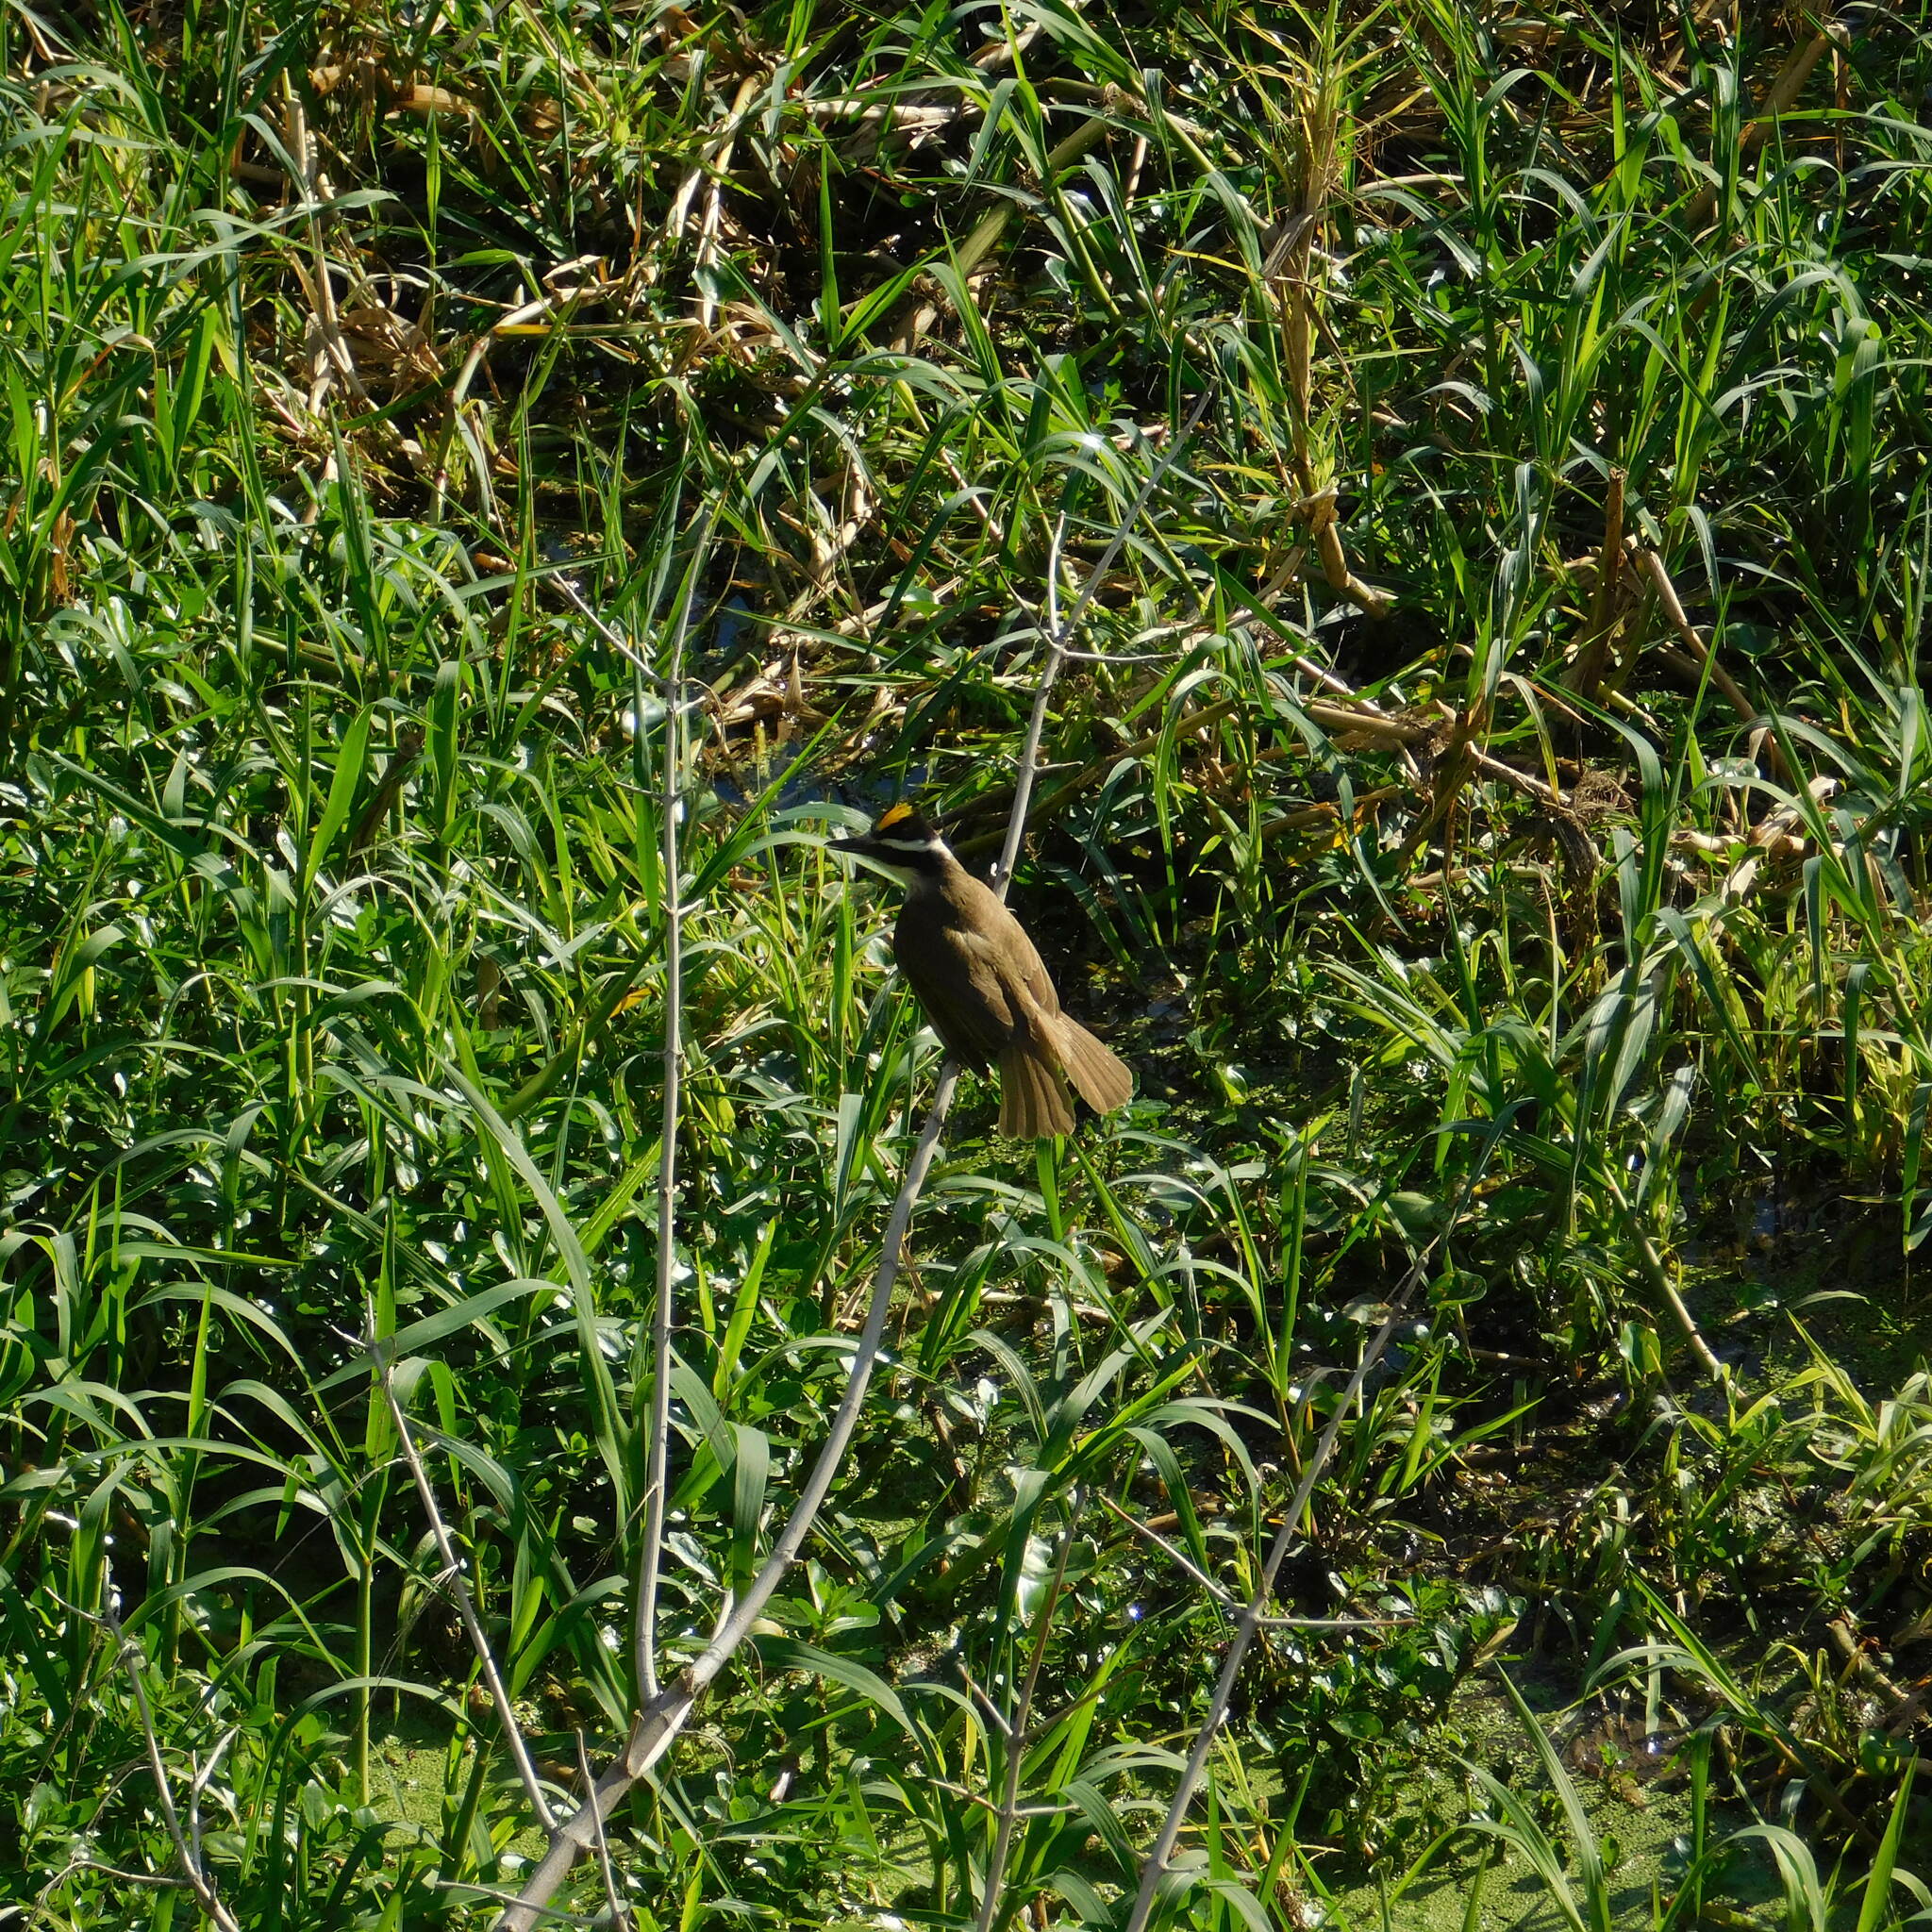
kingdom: Animalia
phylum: Chordata
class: Aves
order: Passeriformes
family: Tyrannidae
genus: Pitangus
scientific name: Pitangus sulphuratus
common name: Great kiskadee
